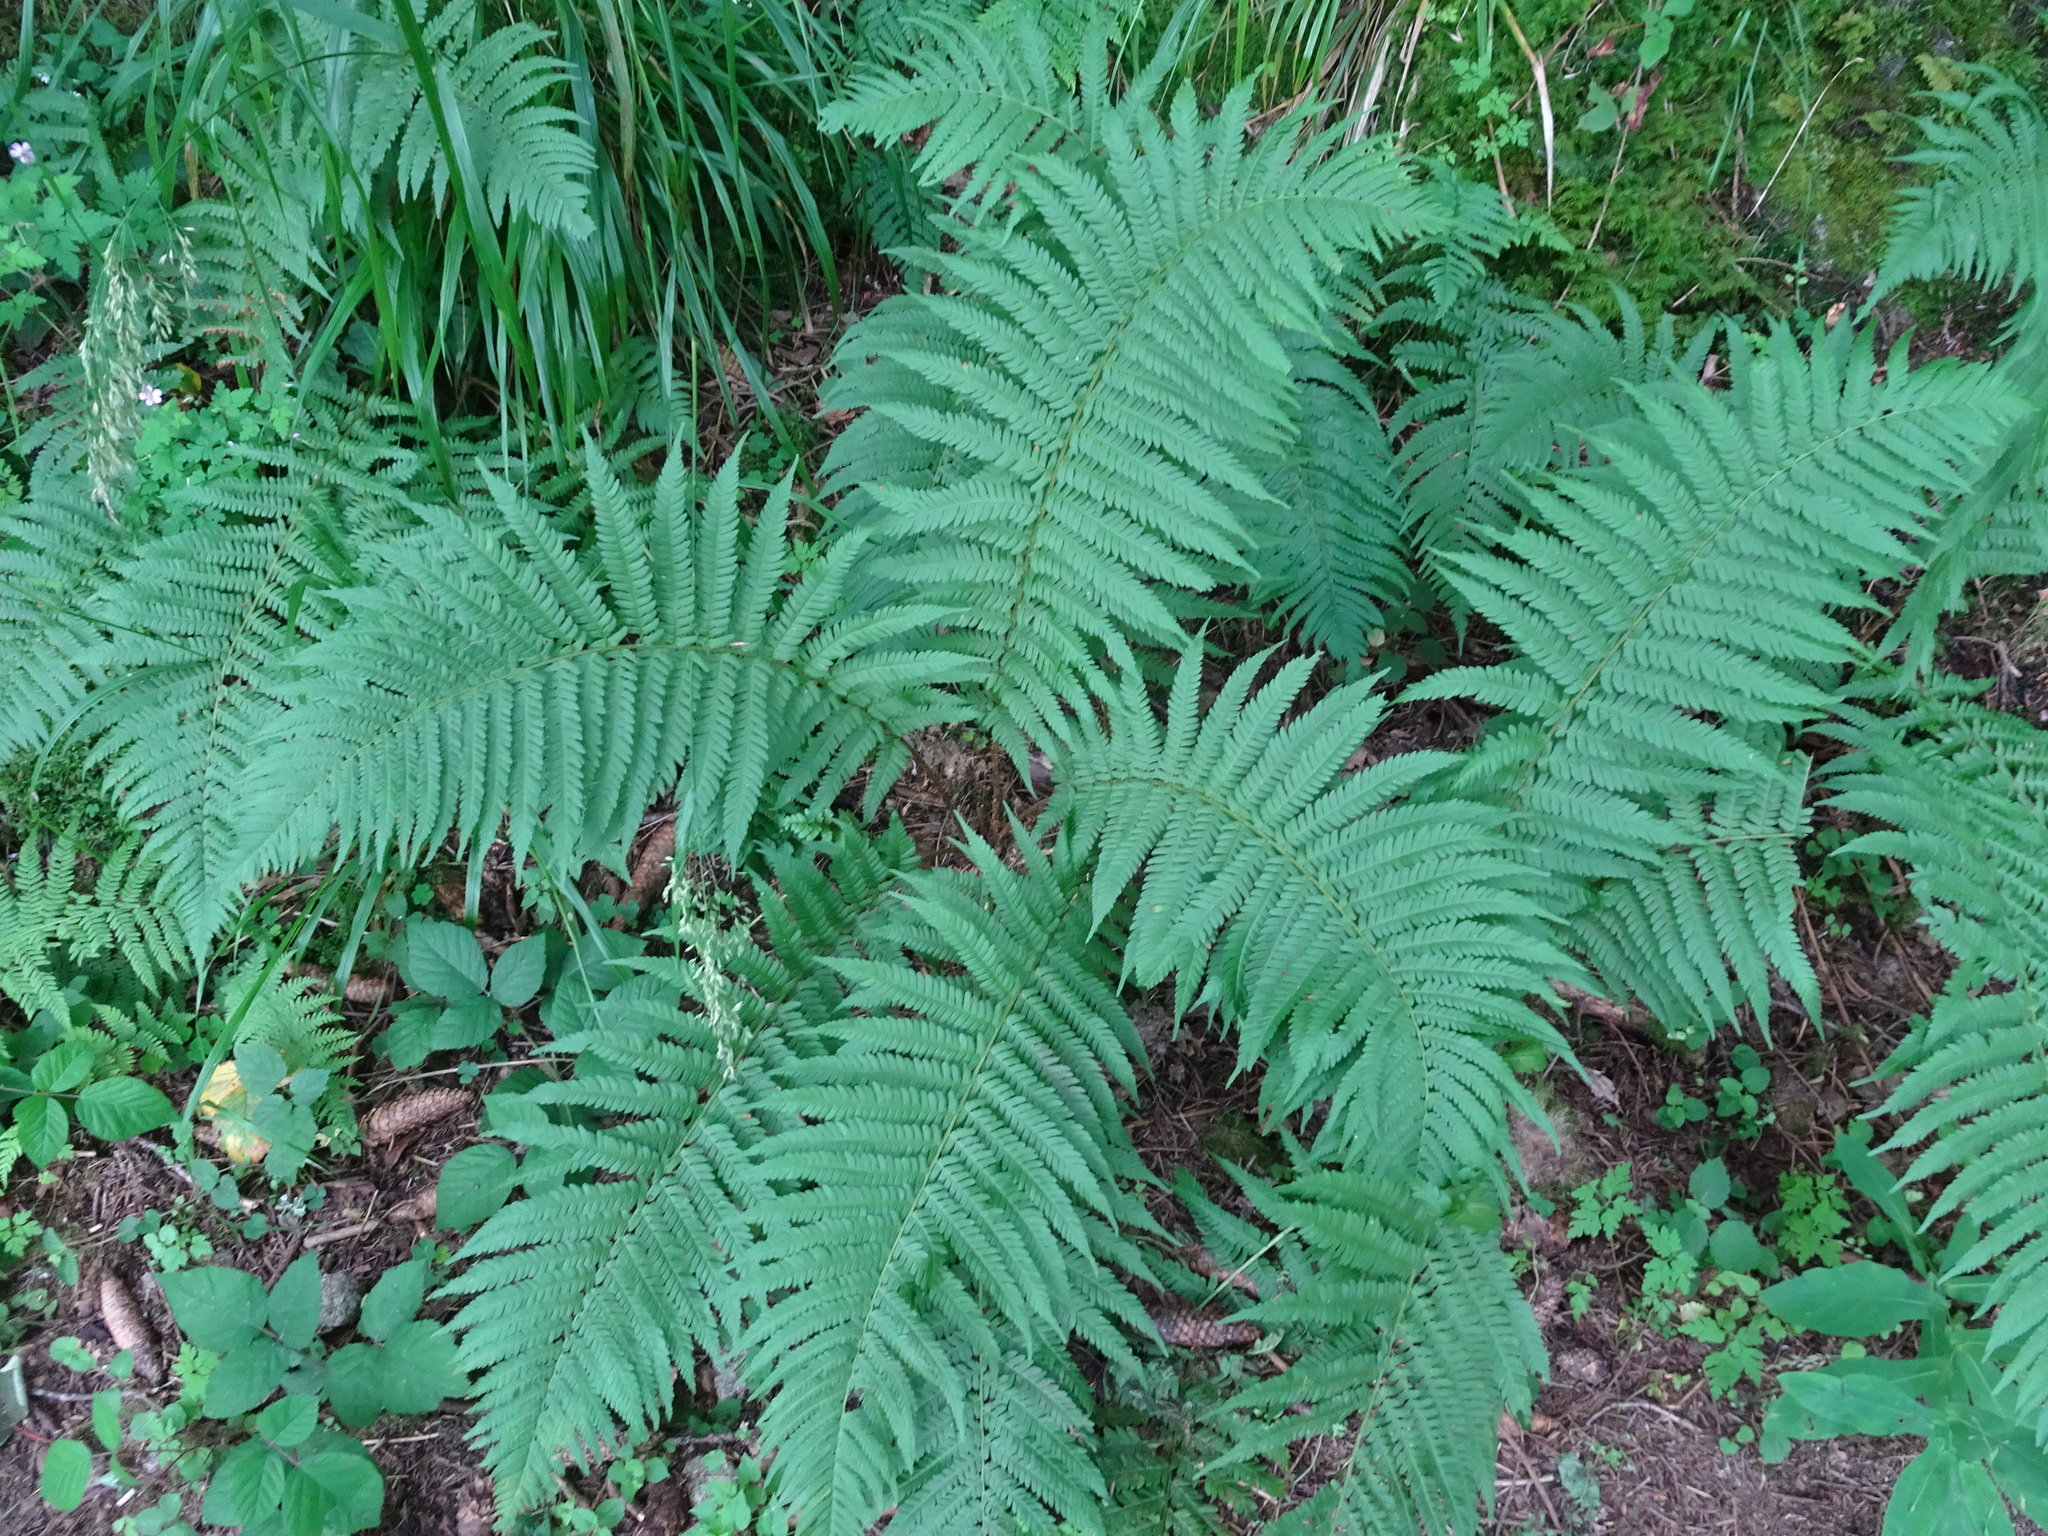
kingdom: Plantae
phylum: Tracheophyta
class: Polypodiopsida
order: Polypodiales
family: Dryopteridaceae
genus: Dryopteris
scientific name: Dryopteris filix-mas
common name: Male fern
